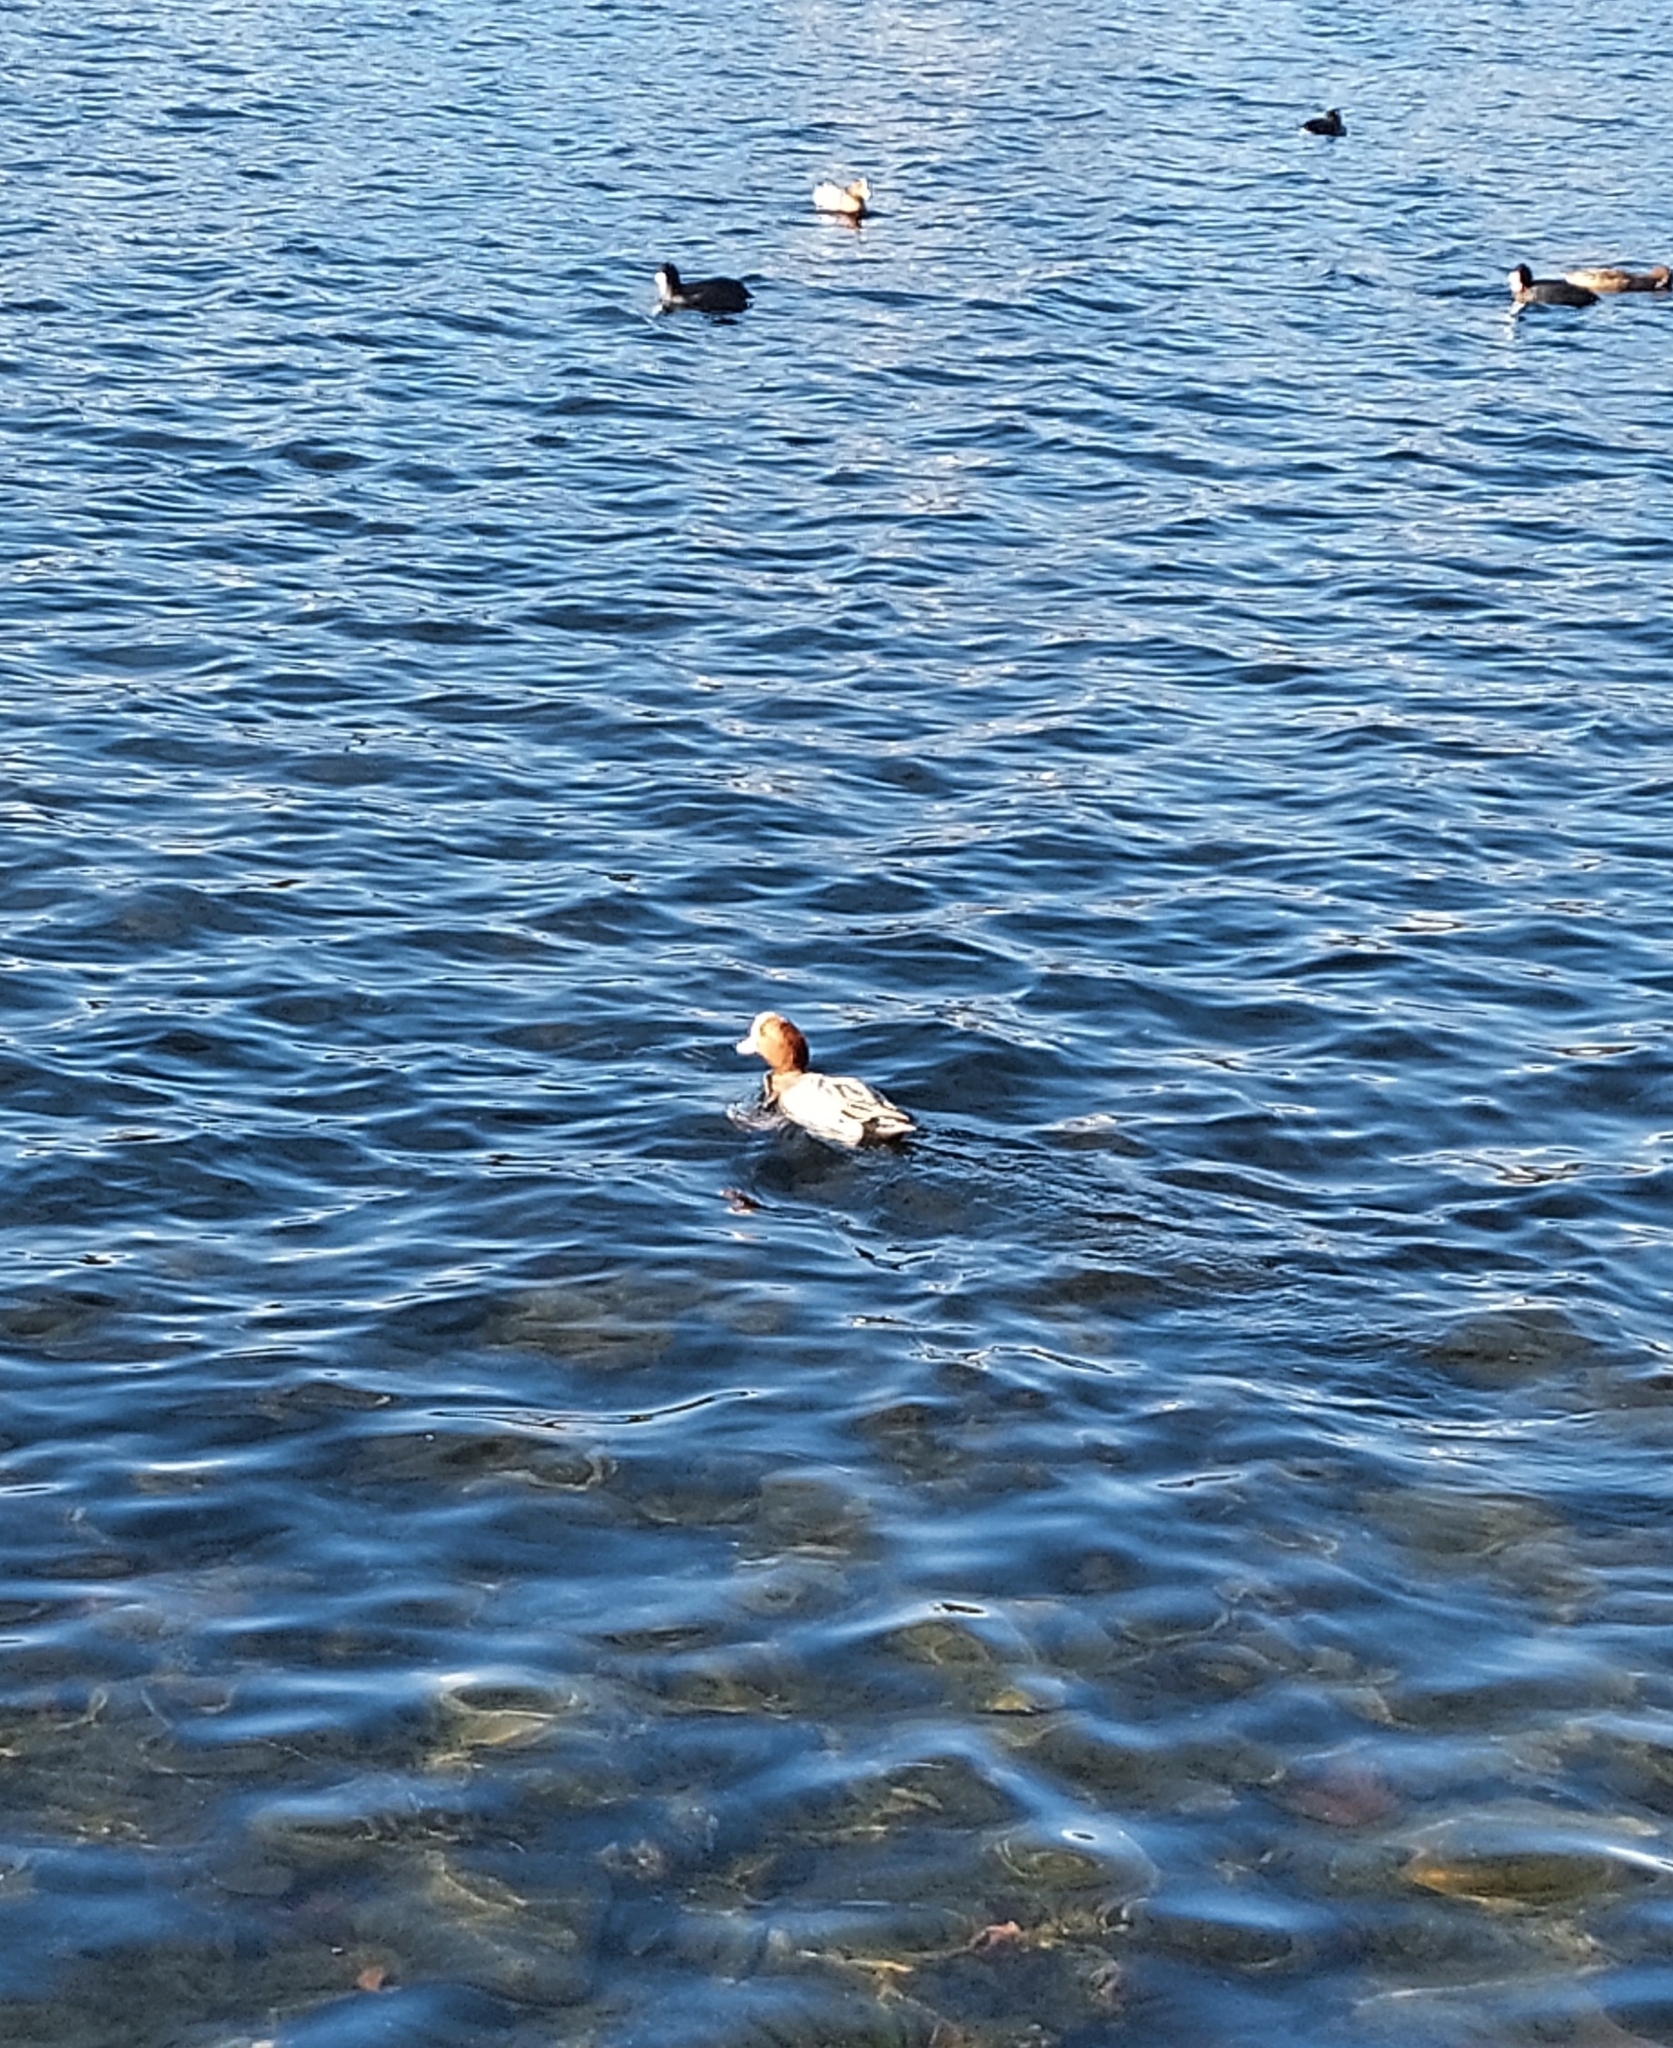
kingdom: Animalia
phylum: Chordata
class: Aves
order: Anseriformes
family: Anatidae
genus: Mareca
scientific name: Mareca penelope
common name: Eurasian wigeon
